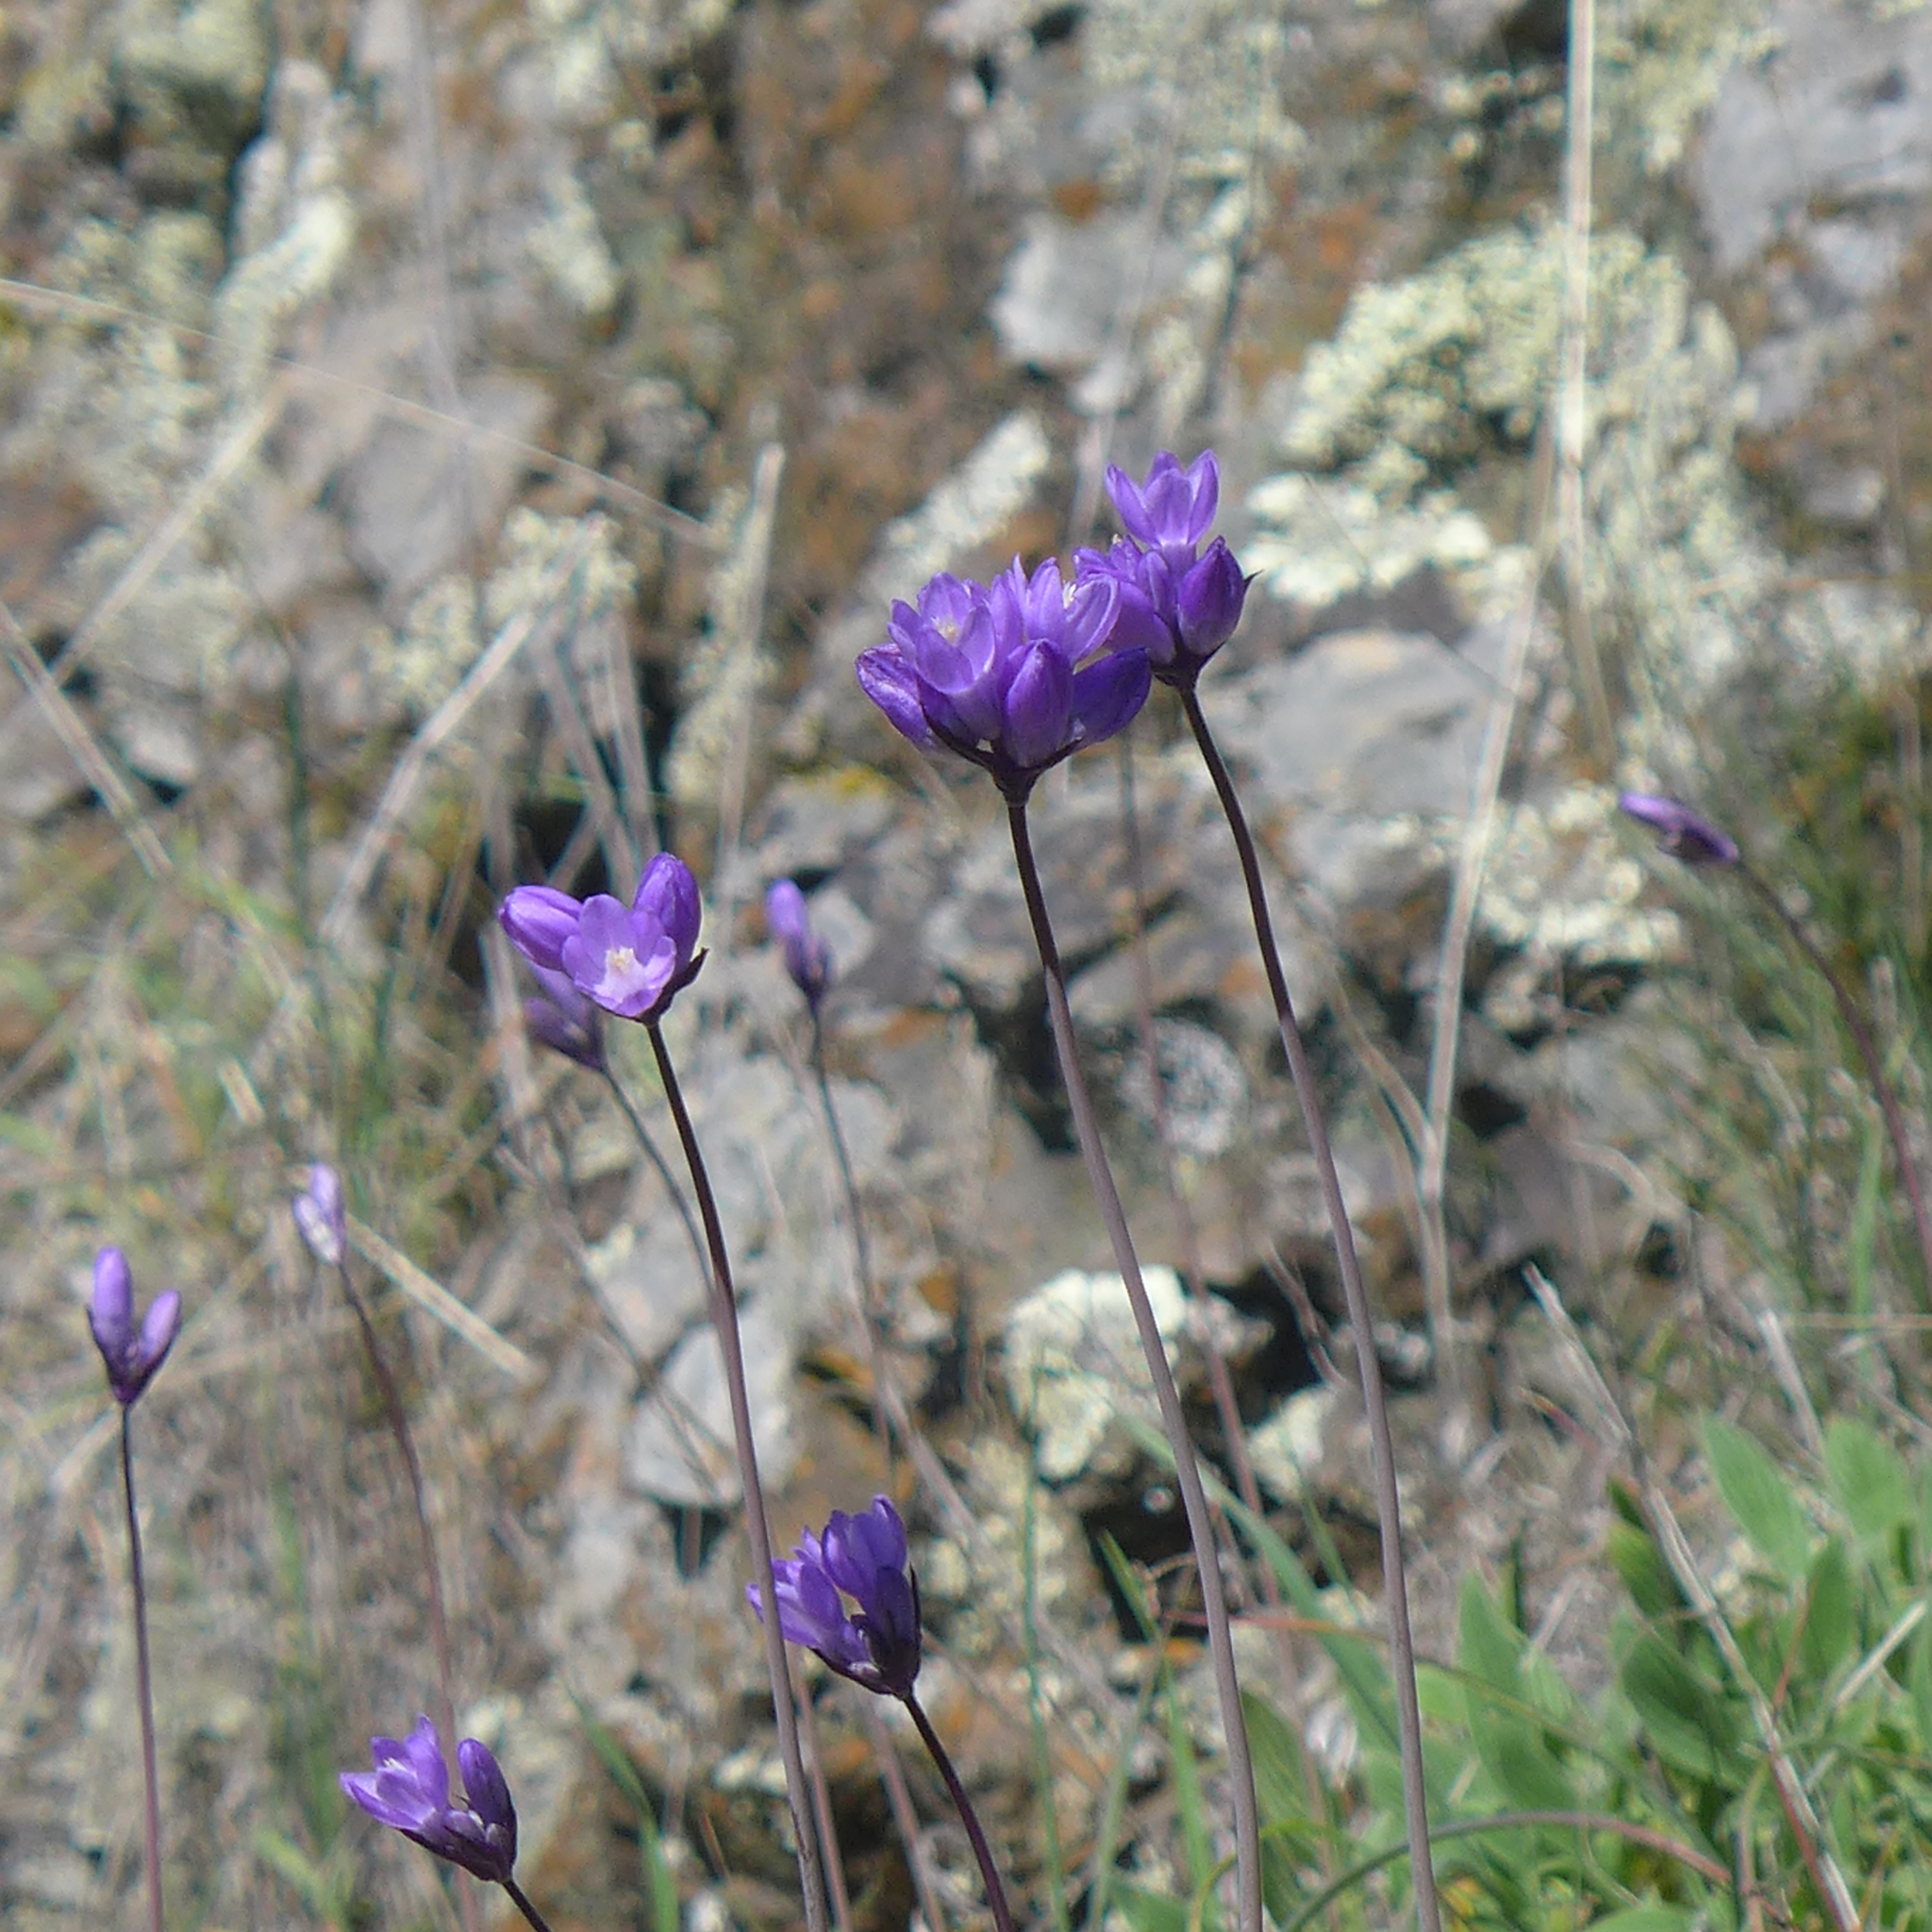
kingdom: Plantae
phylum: Tracheophyta
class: Liliopsida
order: Asparagales
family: Asparagaceae
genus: Dipterostemon
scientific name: Dipterostemon capitatus
